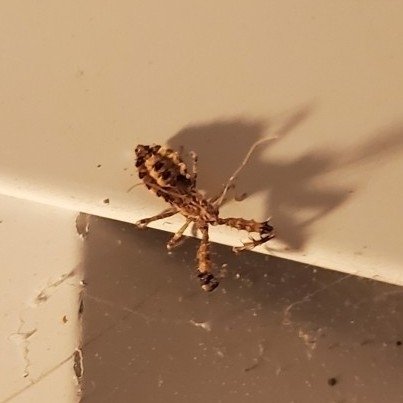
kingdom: Animalia
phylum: Arthropoda
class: Insecta
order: Hemiptera
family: Reduviidae
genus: Sinea
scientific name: Sinea spinipes
